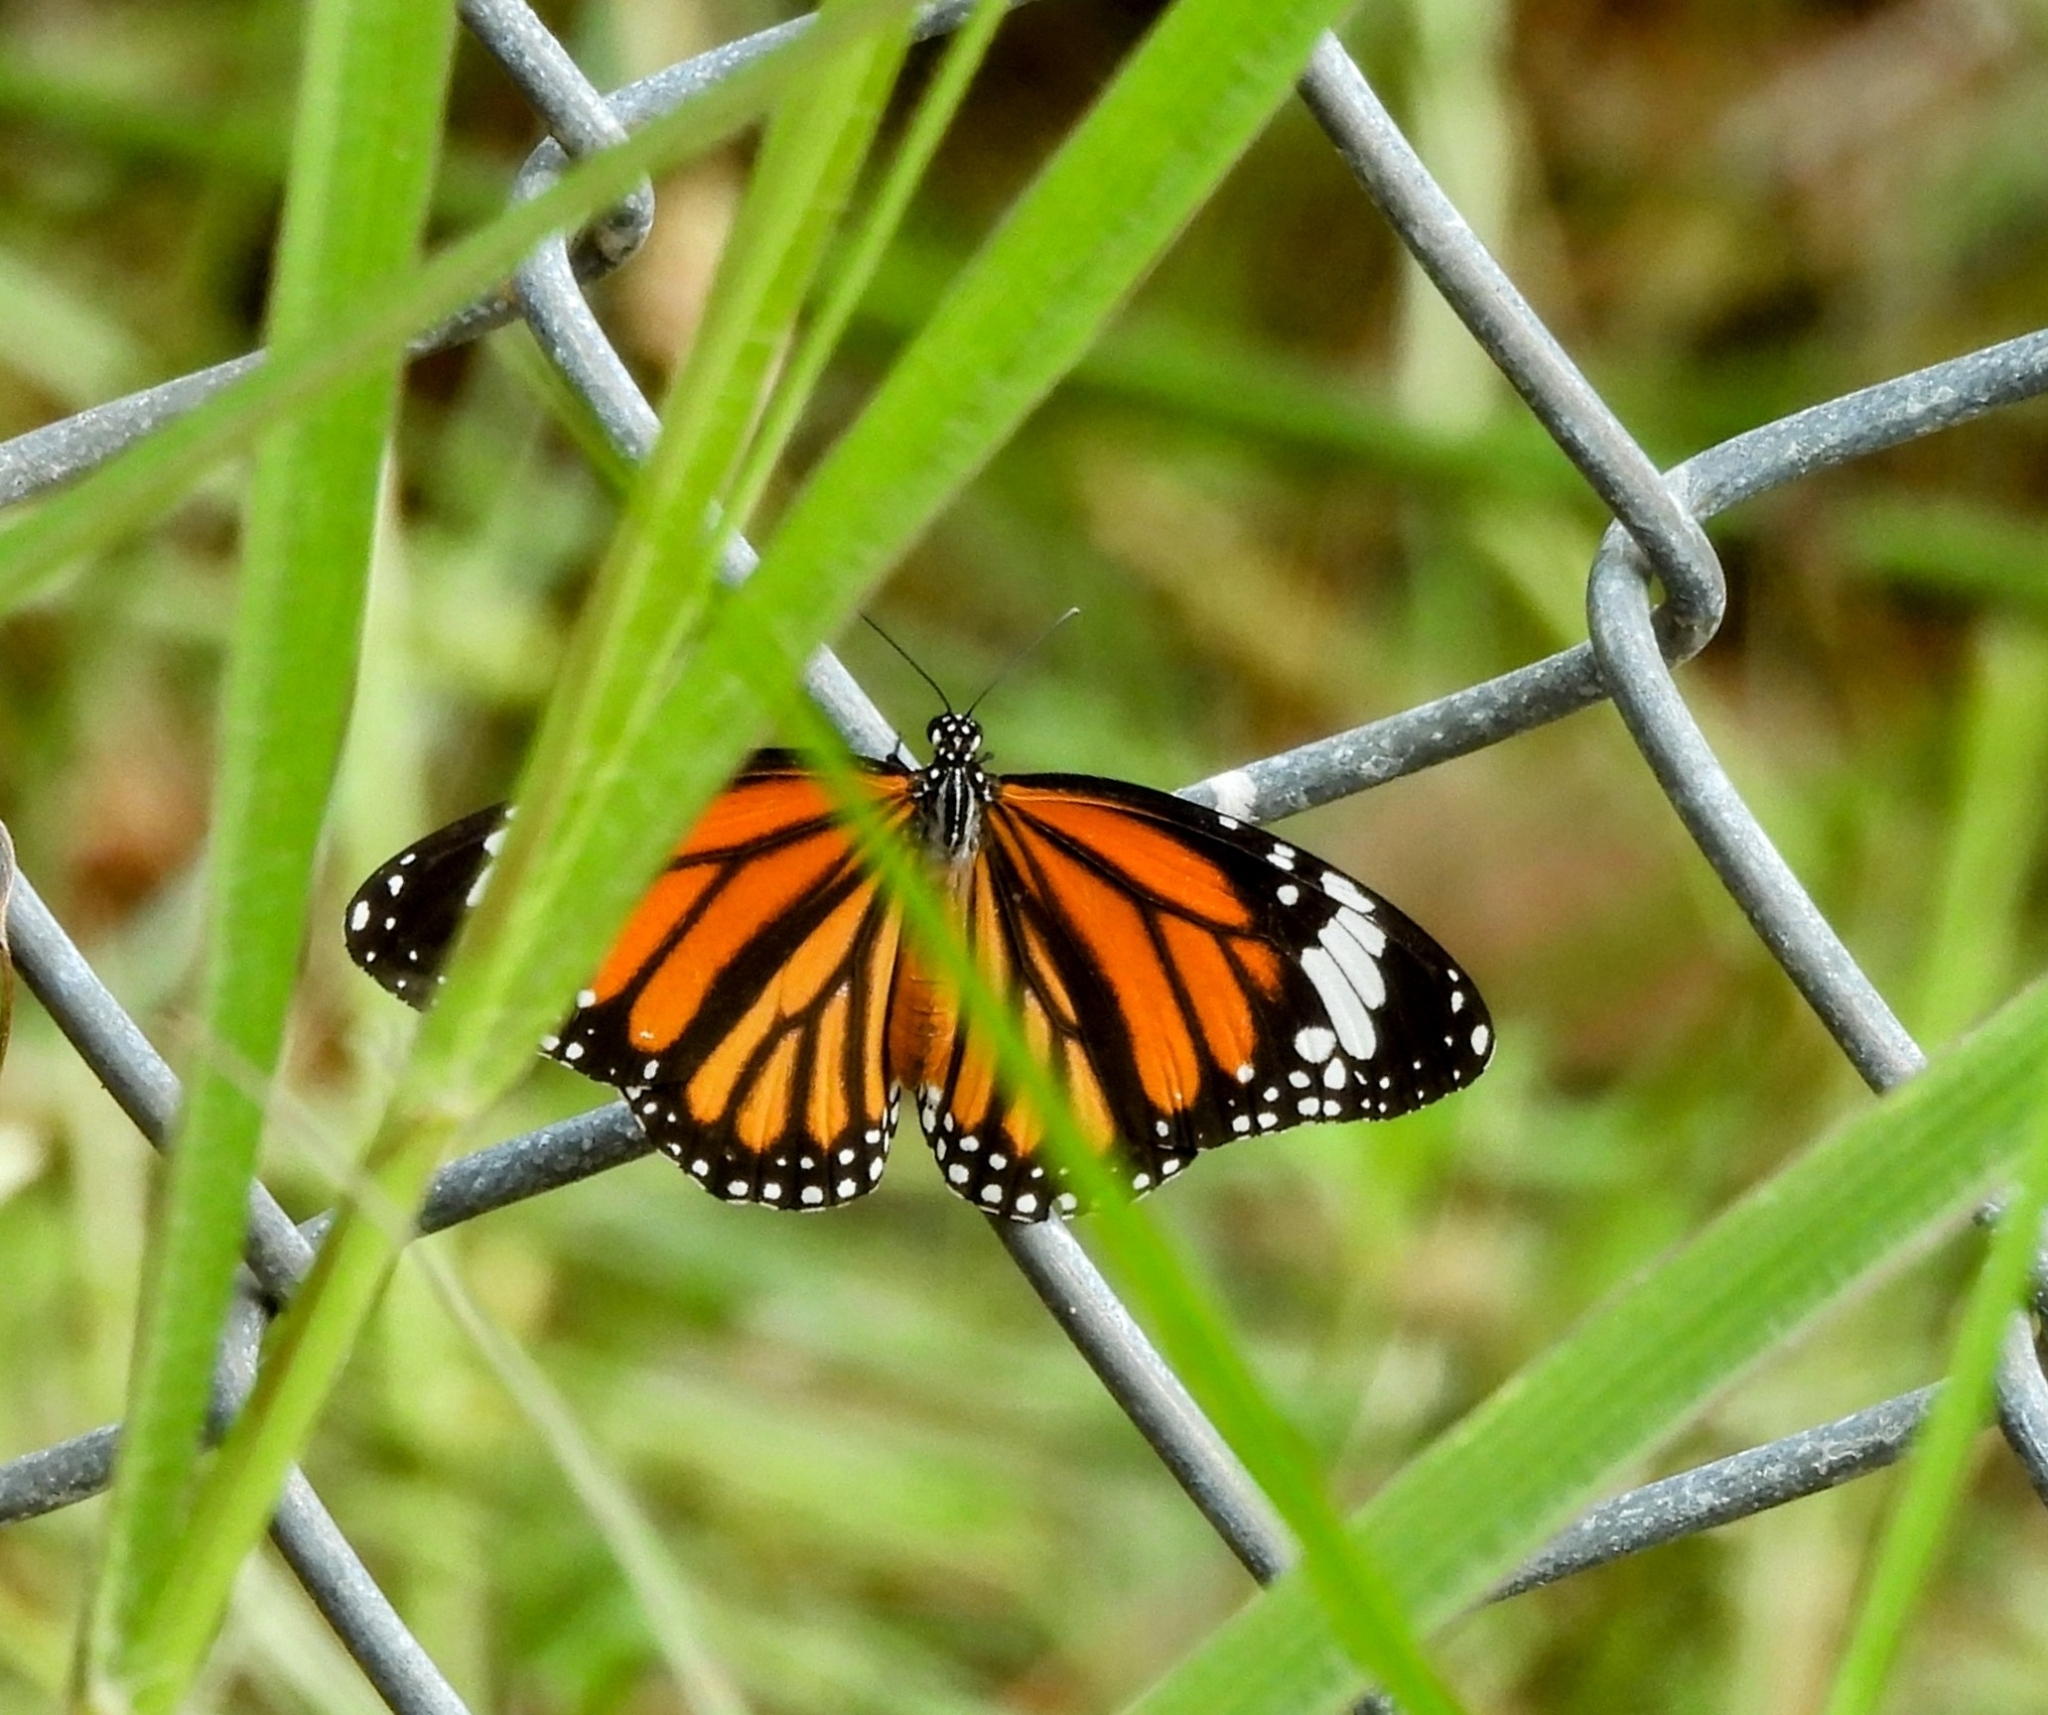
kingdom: Animalia
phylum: Arthropoda
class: Insecta
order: Lepidoptera
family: Nymphalidae
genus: Danaus
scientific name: Danaus genutia
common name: Common tiger butterfly
